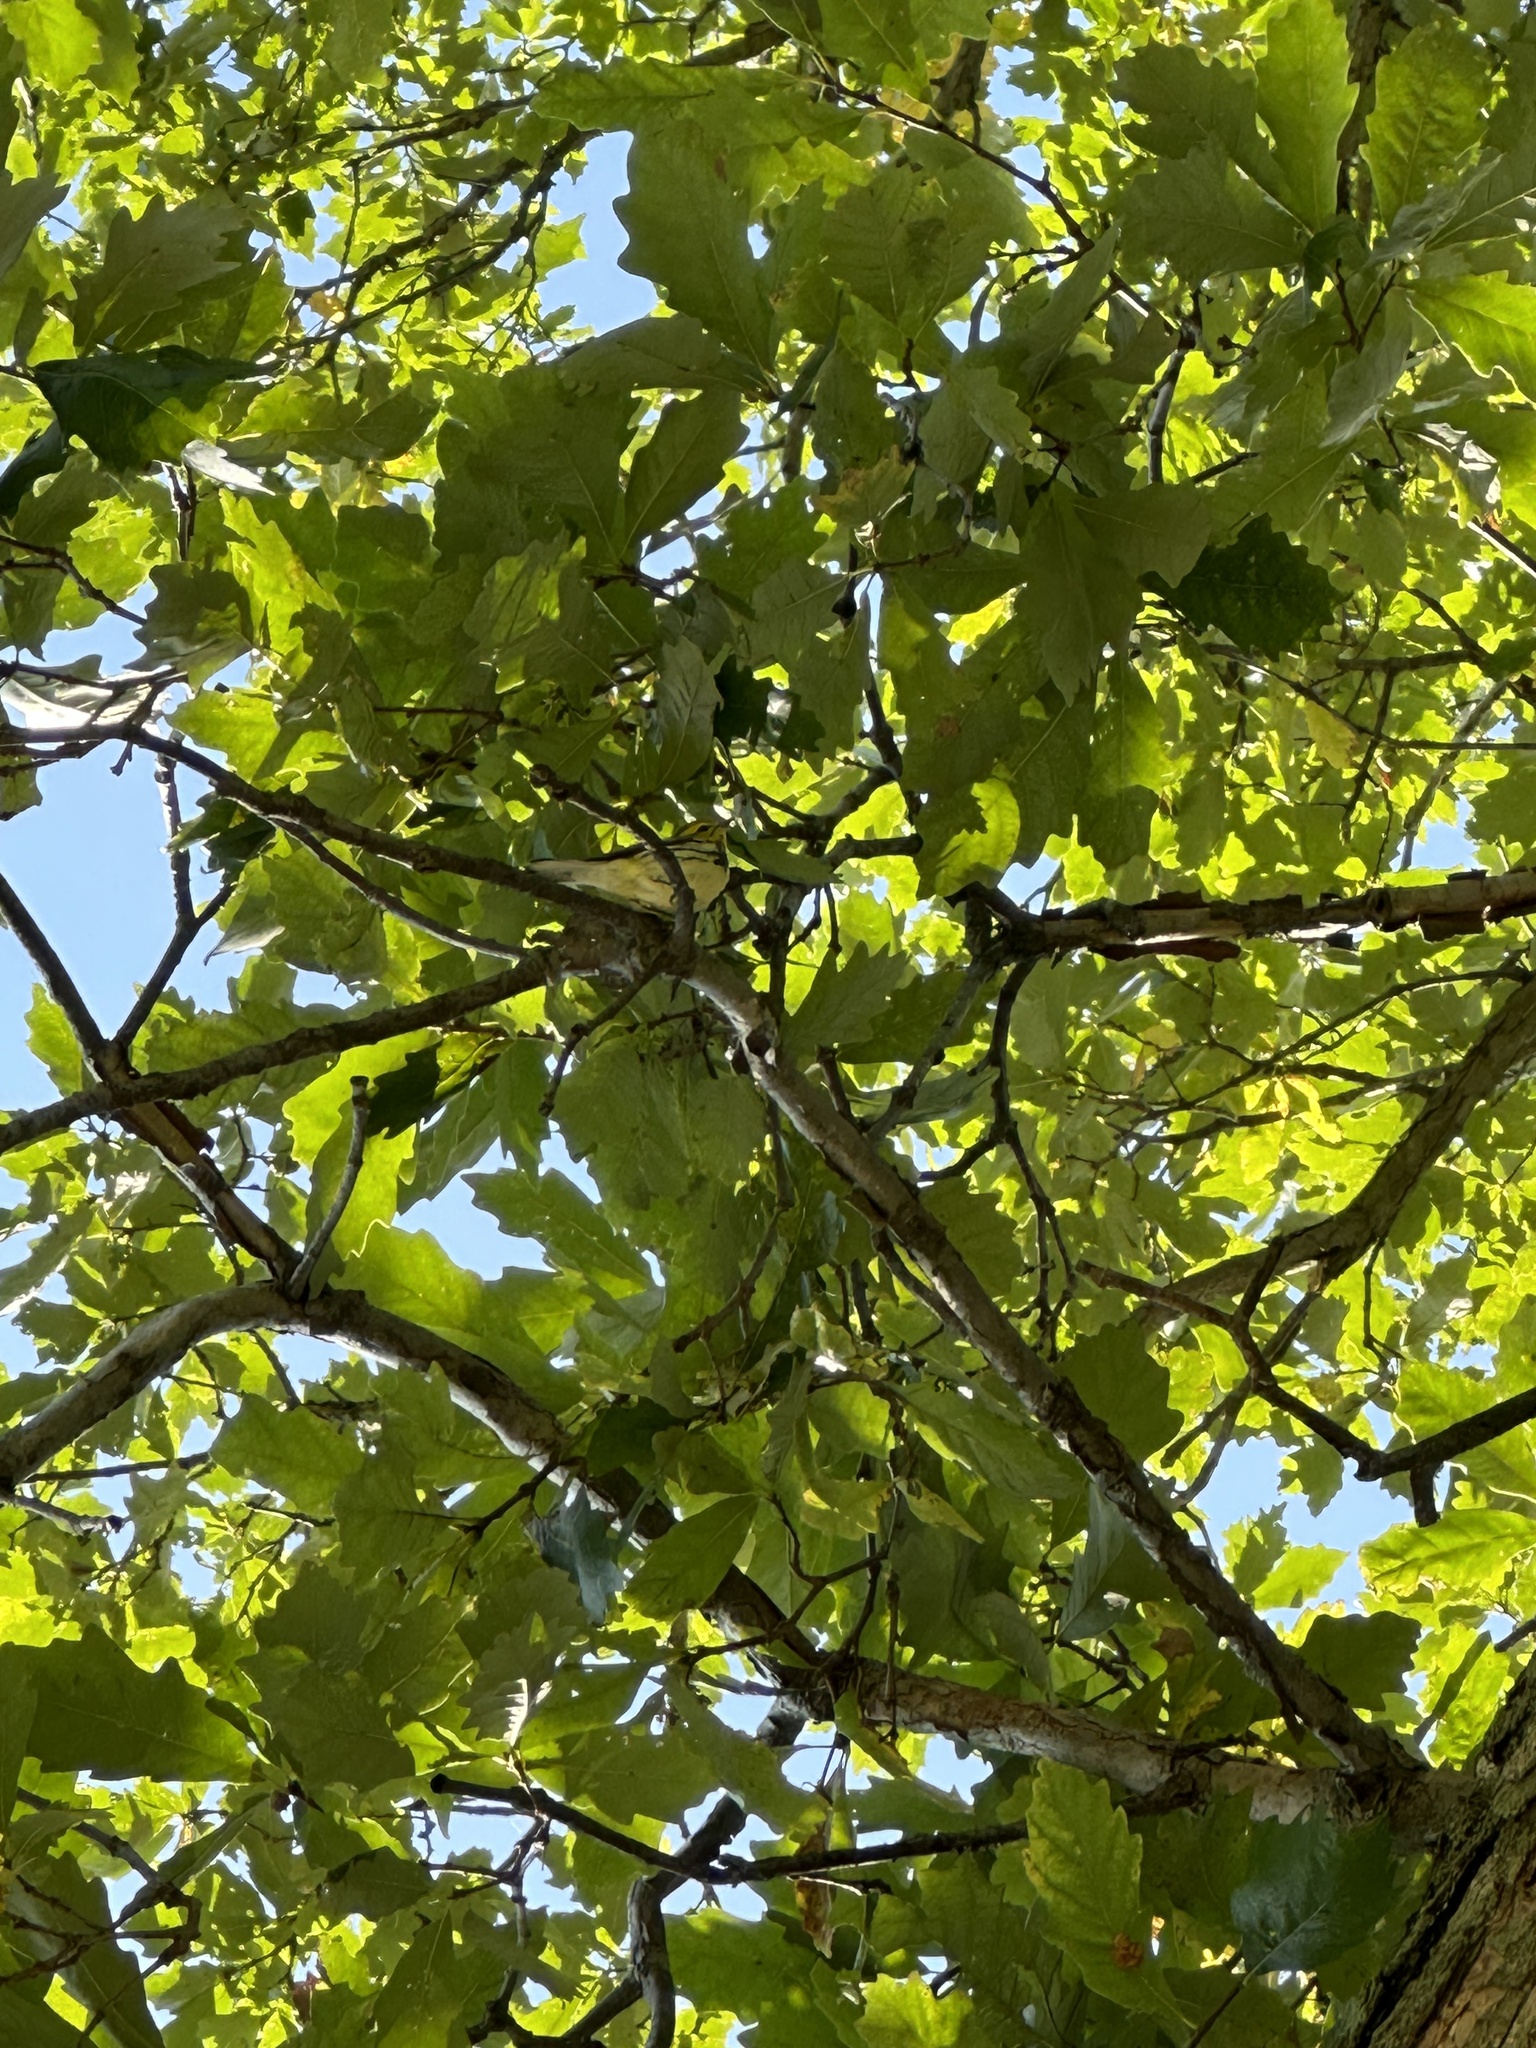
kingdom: Animalia
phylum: Chordata
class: Aves
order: Passeriformes
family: Parulidae
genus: Setophaga
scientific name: Setophaga virens
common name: Black-throated green warbler
